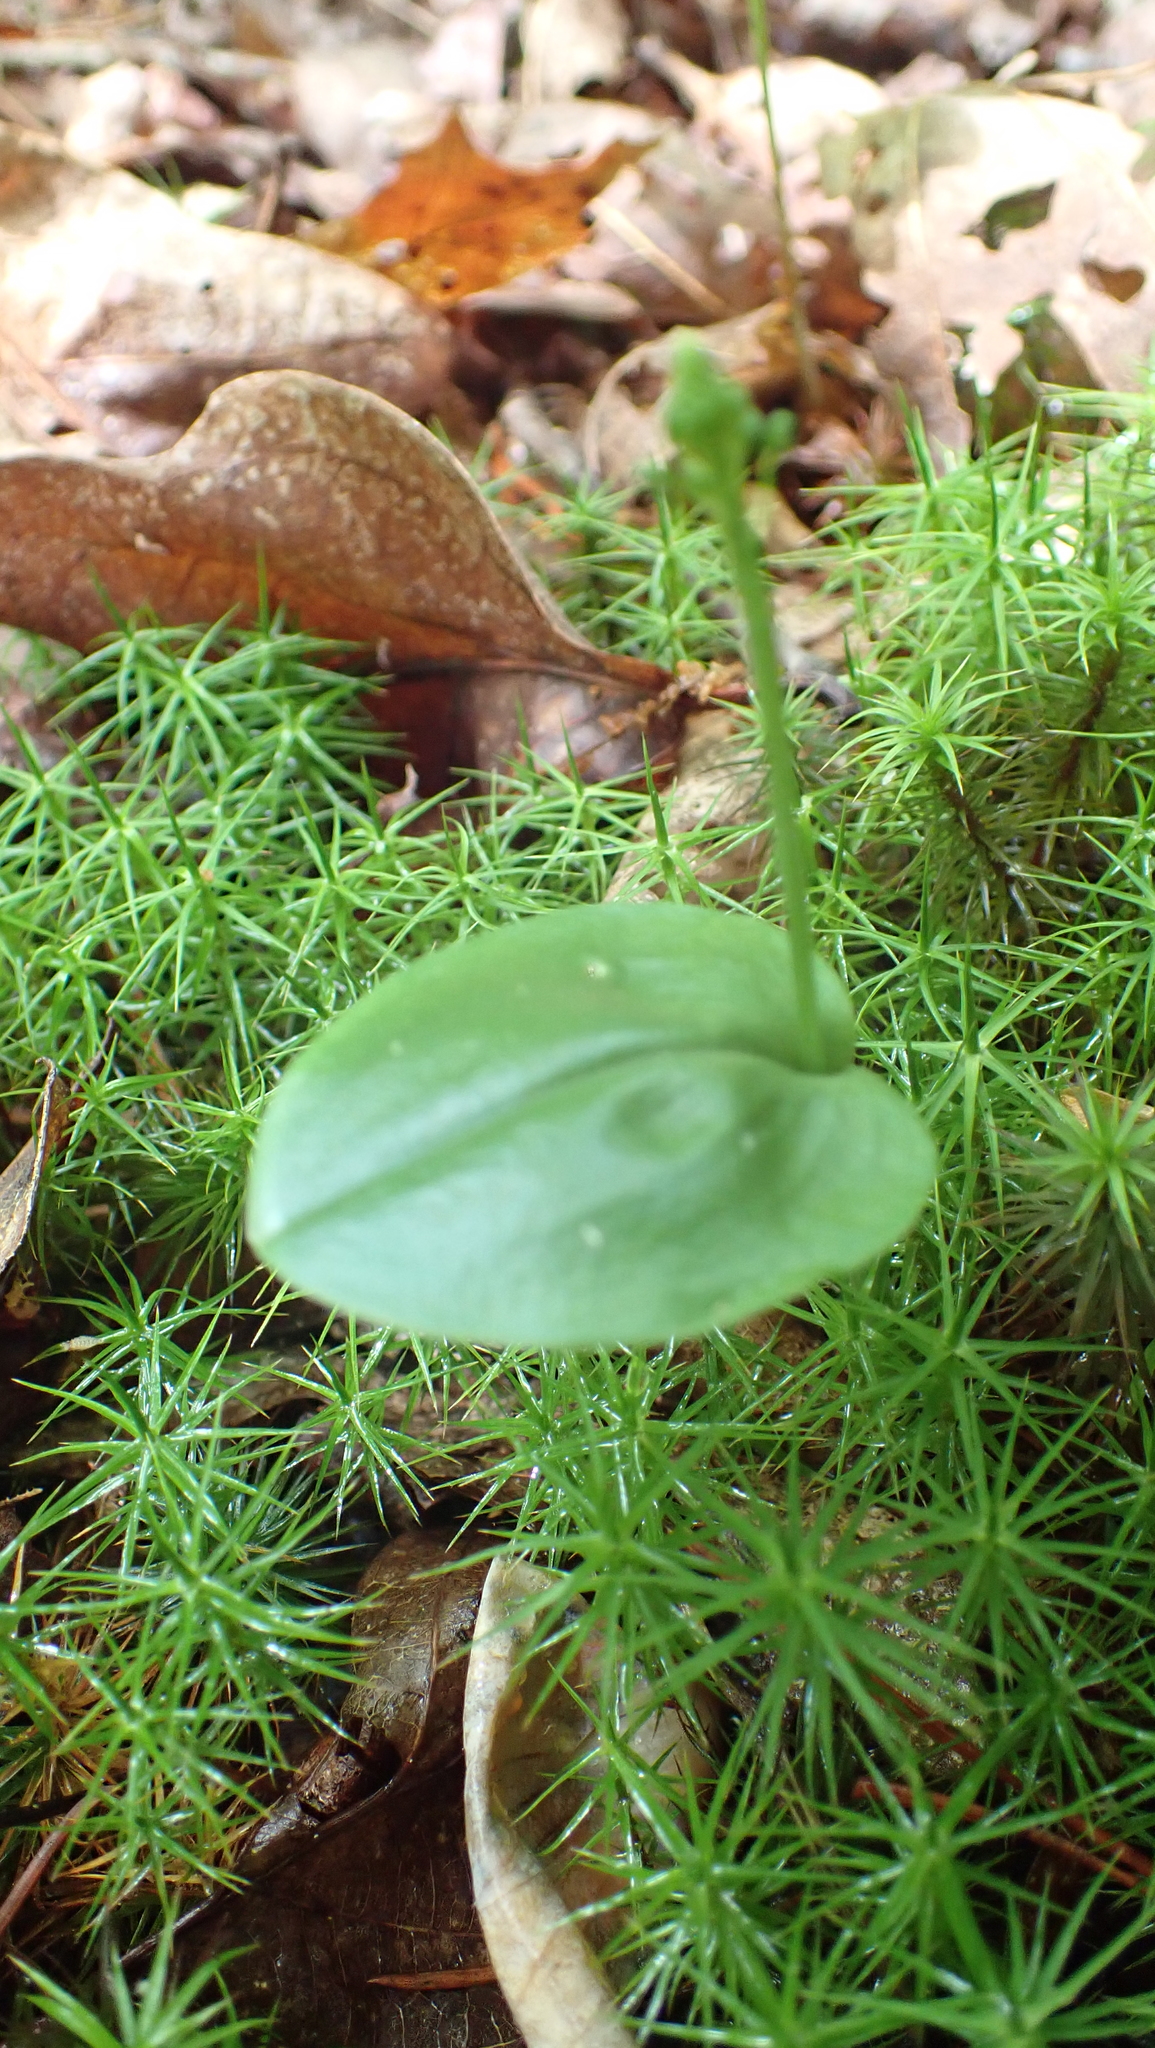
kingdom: Plantae
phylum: Tracheophyta
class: Liliopsida
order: Asparagales
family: Orchidaceae
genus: Malaxis
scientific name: Malaxis unifolia
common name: Green adder's-mouth
